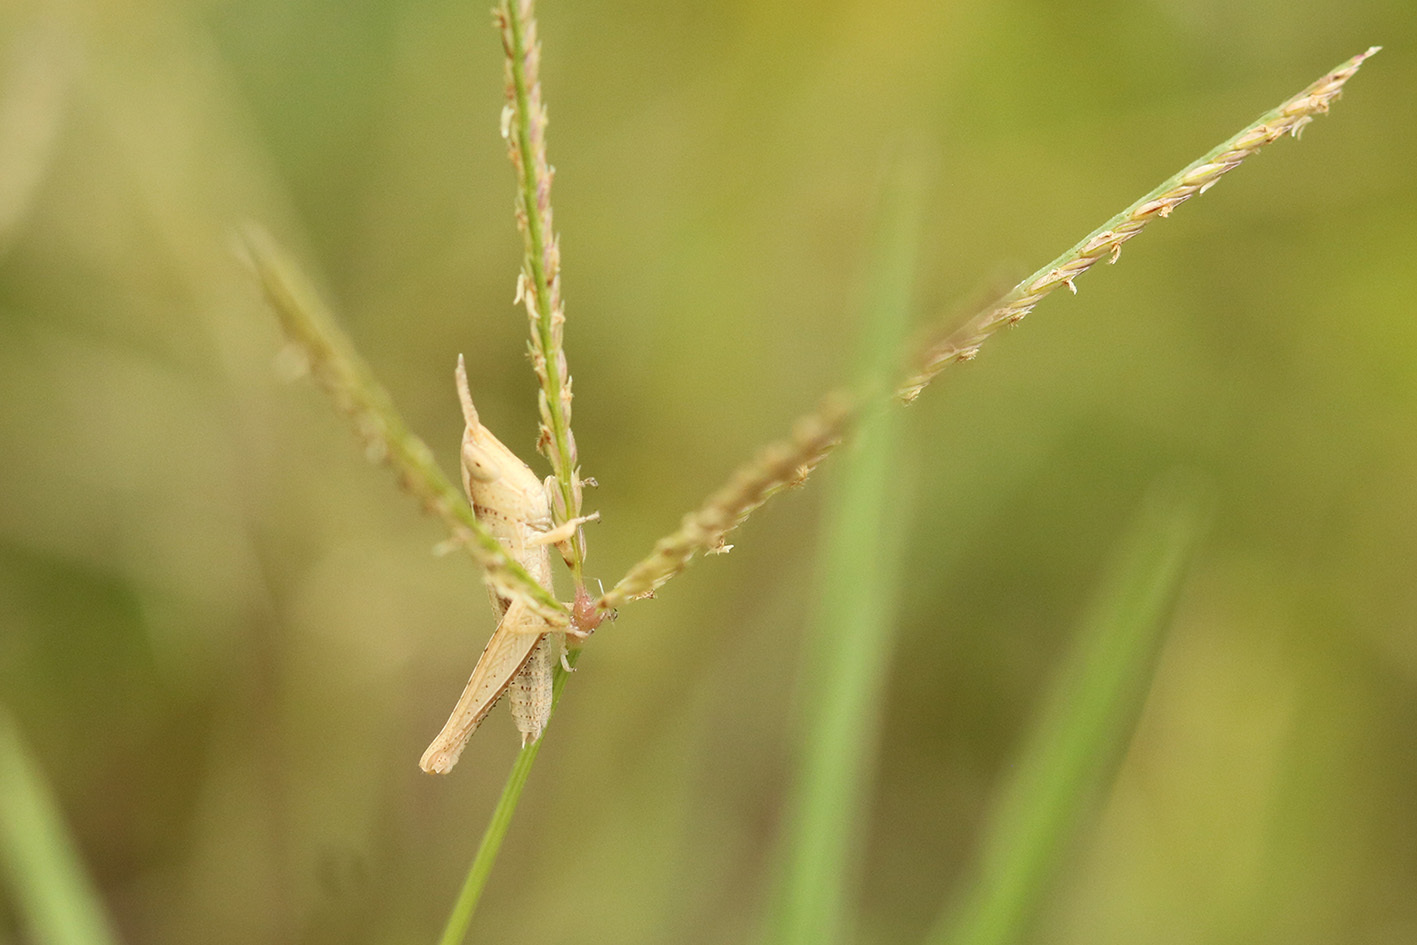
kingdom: Animalia
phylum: Arthropoda
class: Insecta
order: Orthoptera
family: Acrididae
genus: Laplatacris
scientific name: Laplatacris dispar
